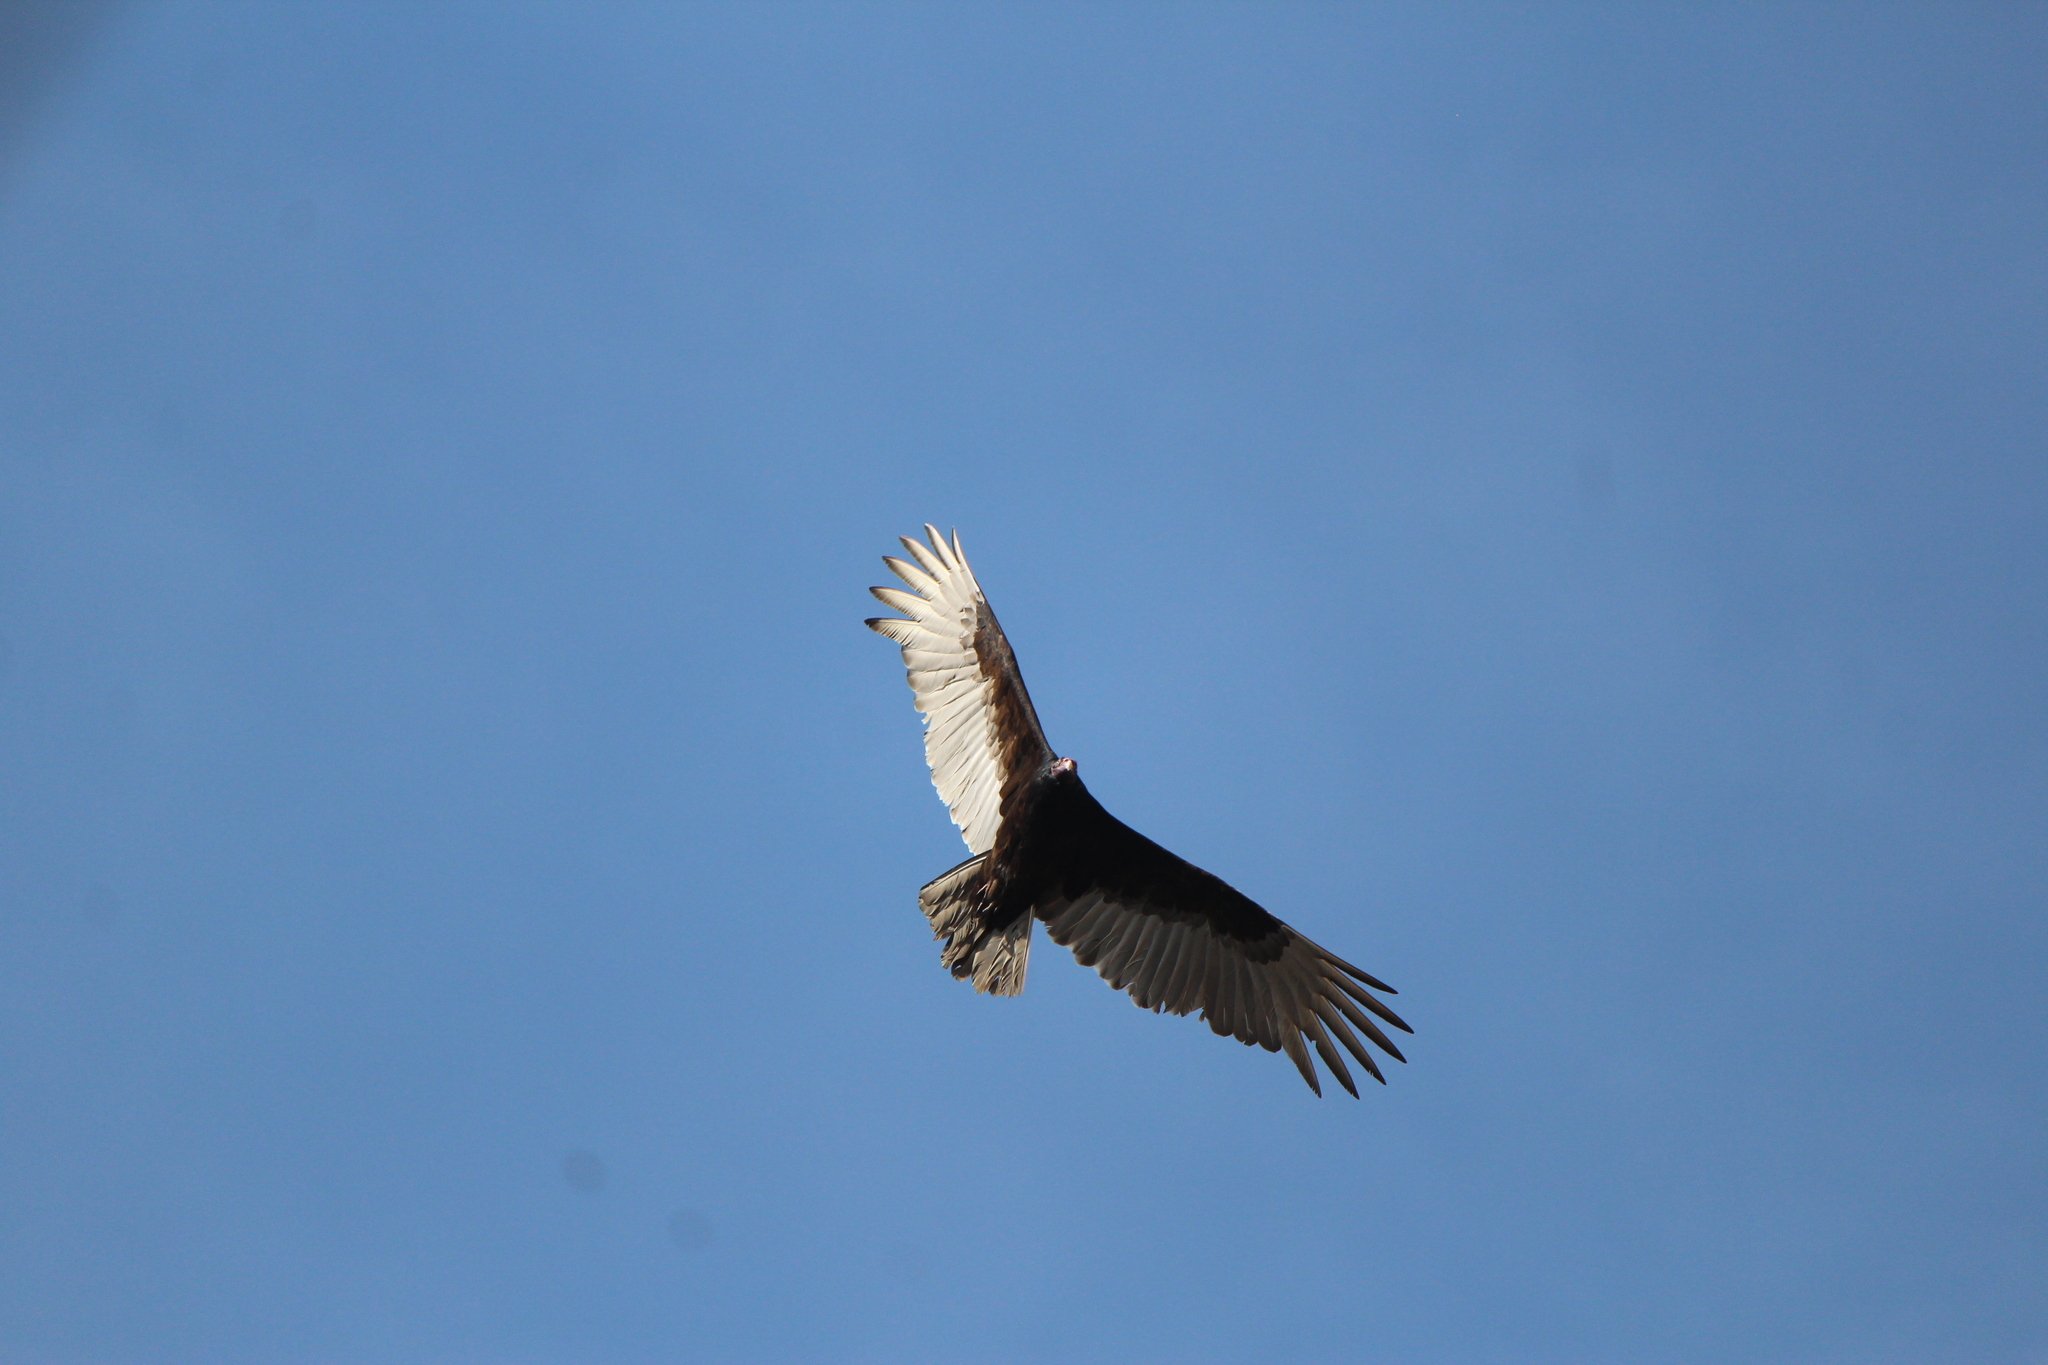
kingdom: Animalia
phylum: Chordata
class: Aves
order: Accipitriformes
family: Cathartidae
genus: Cathartes
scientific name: Cathartes aura
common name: Turkey vulture
